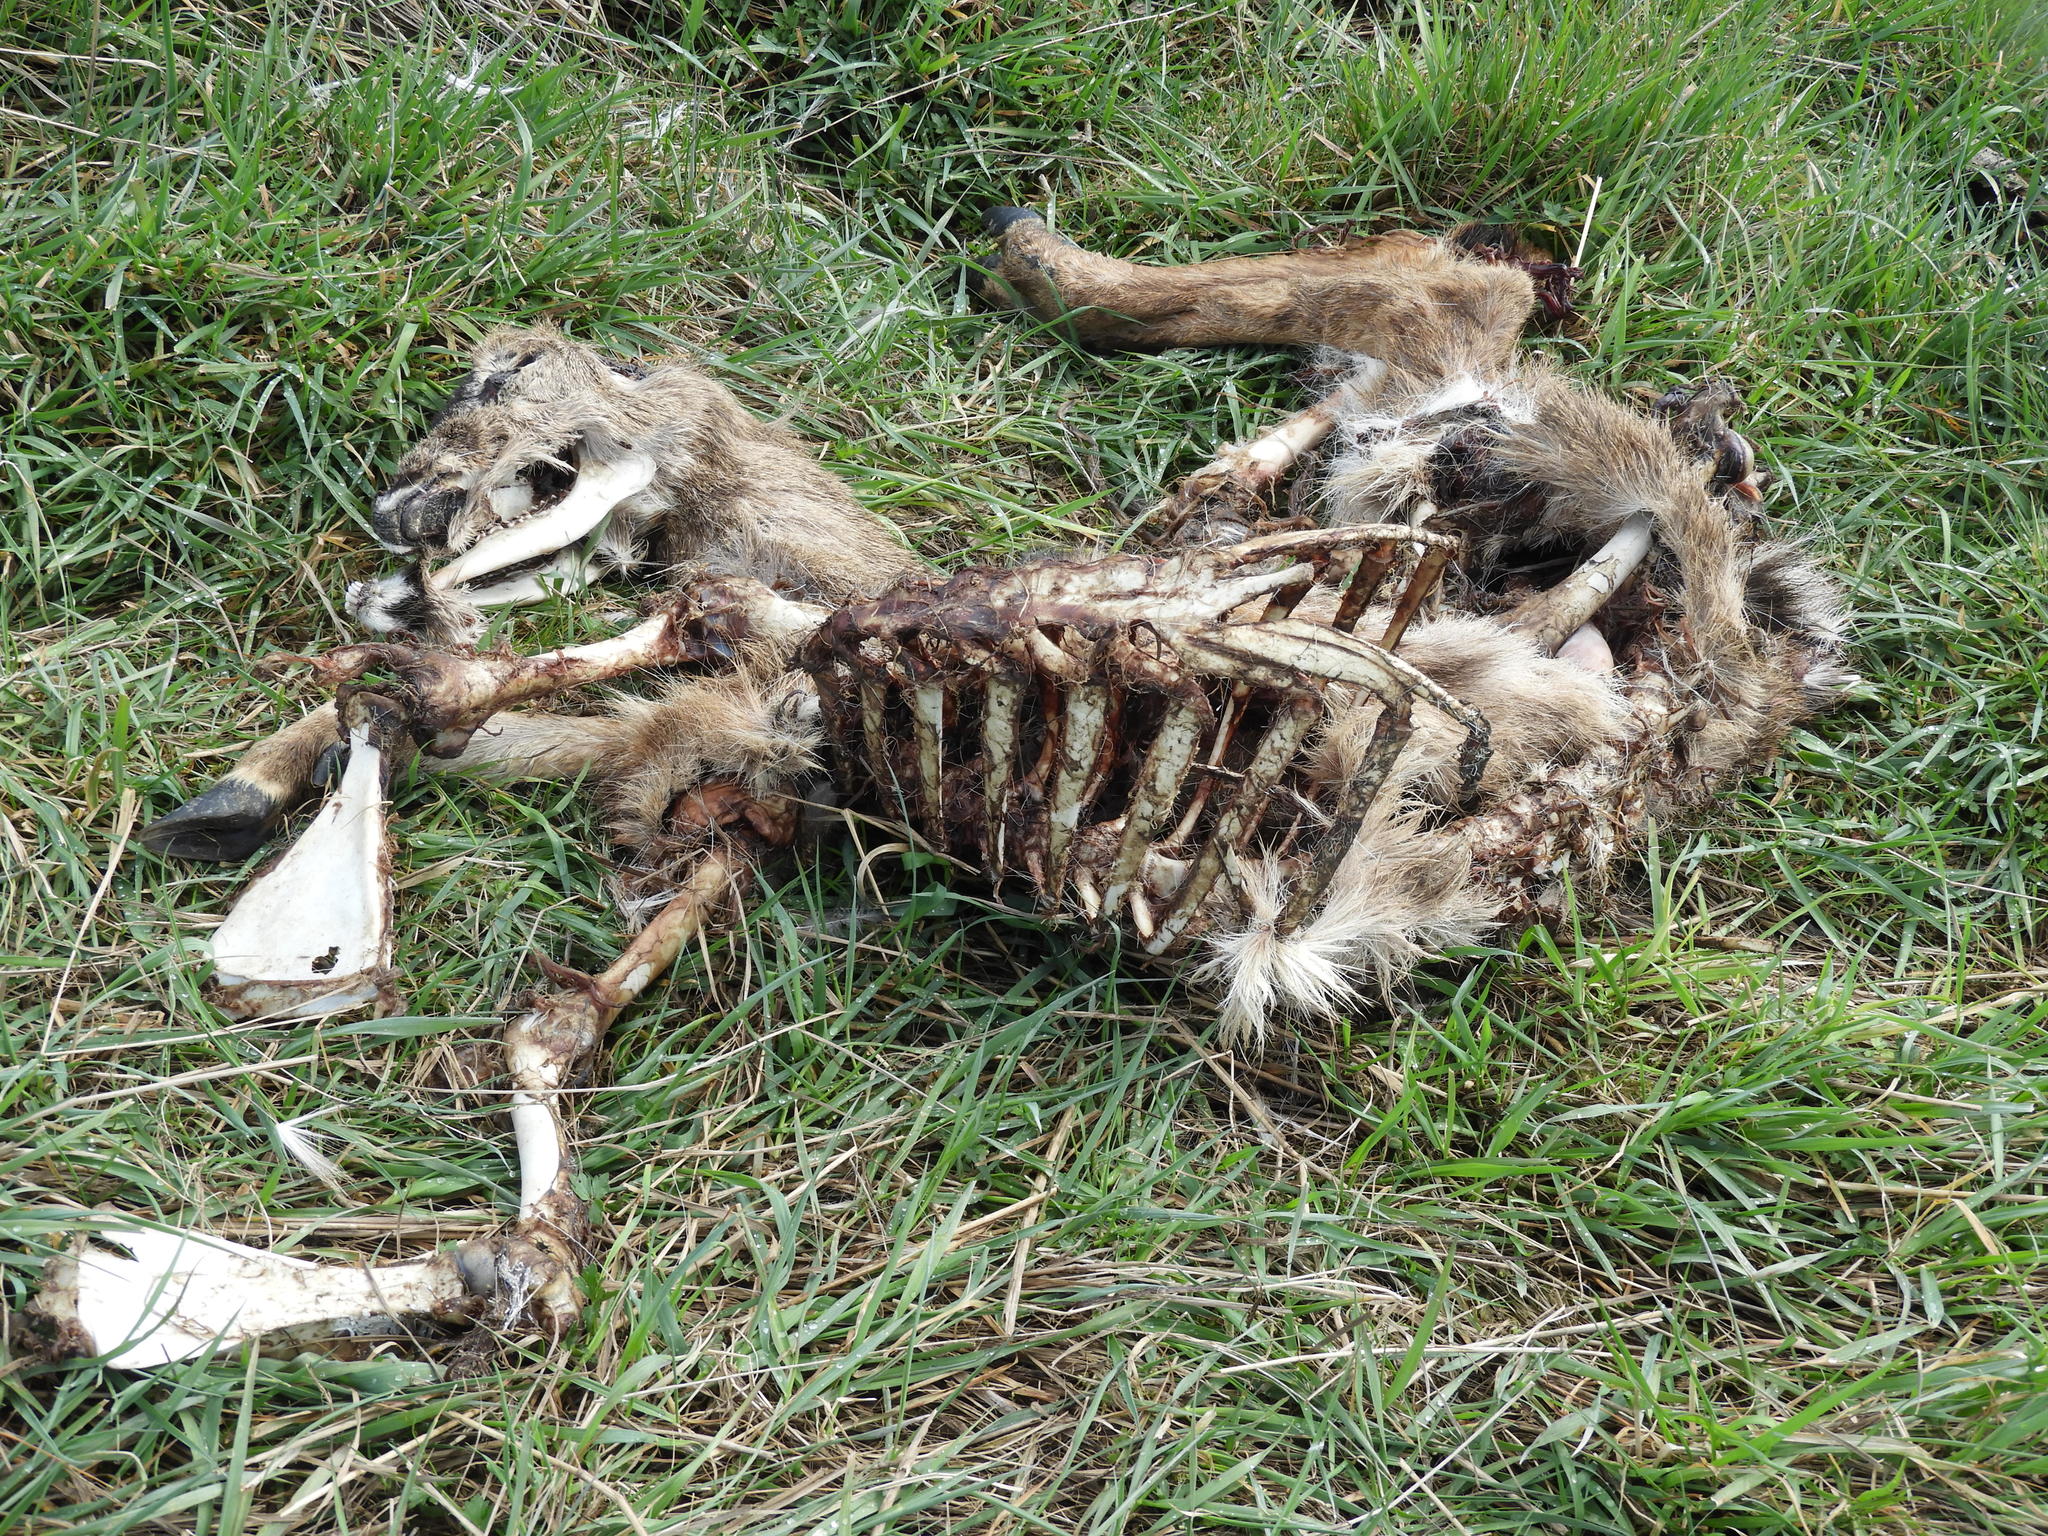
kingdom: Animalia
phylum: Chordata
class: Mammalia
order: Artiodactyla
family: Cervidae
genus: Odocoileus
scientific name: Odocoileus hemionus
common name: Mule deer
